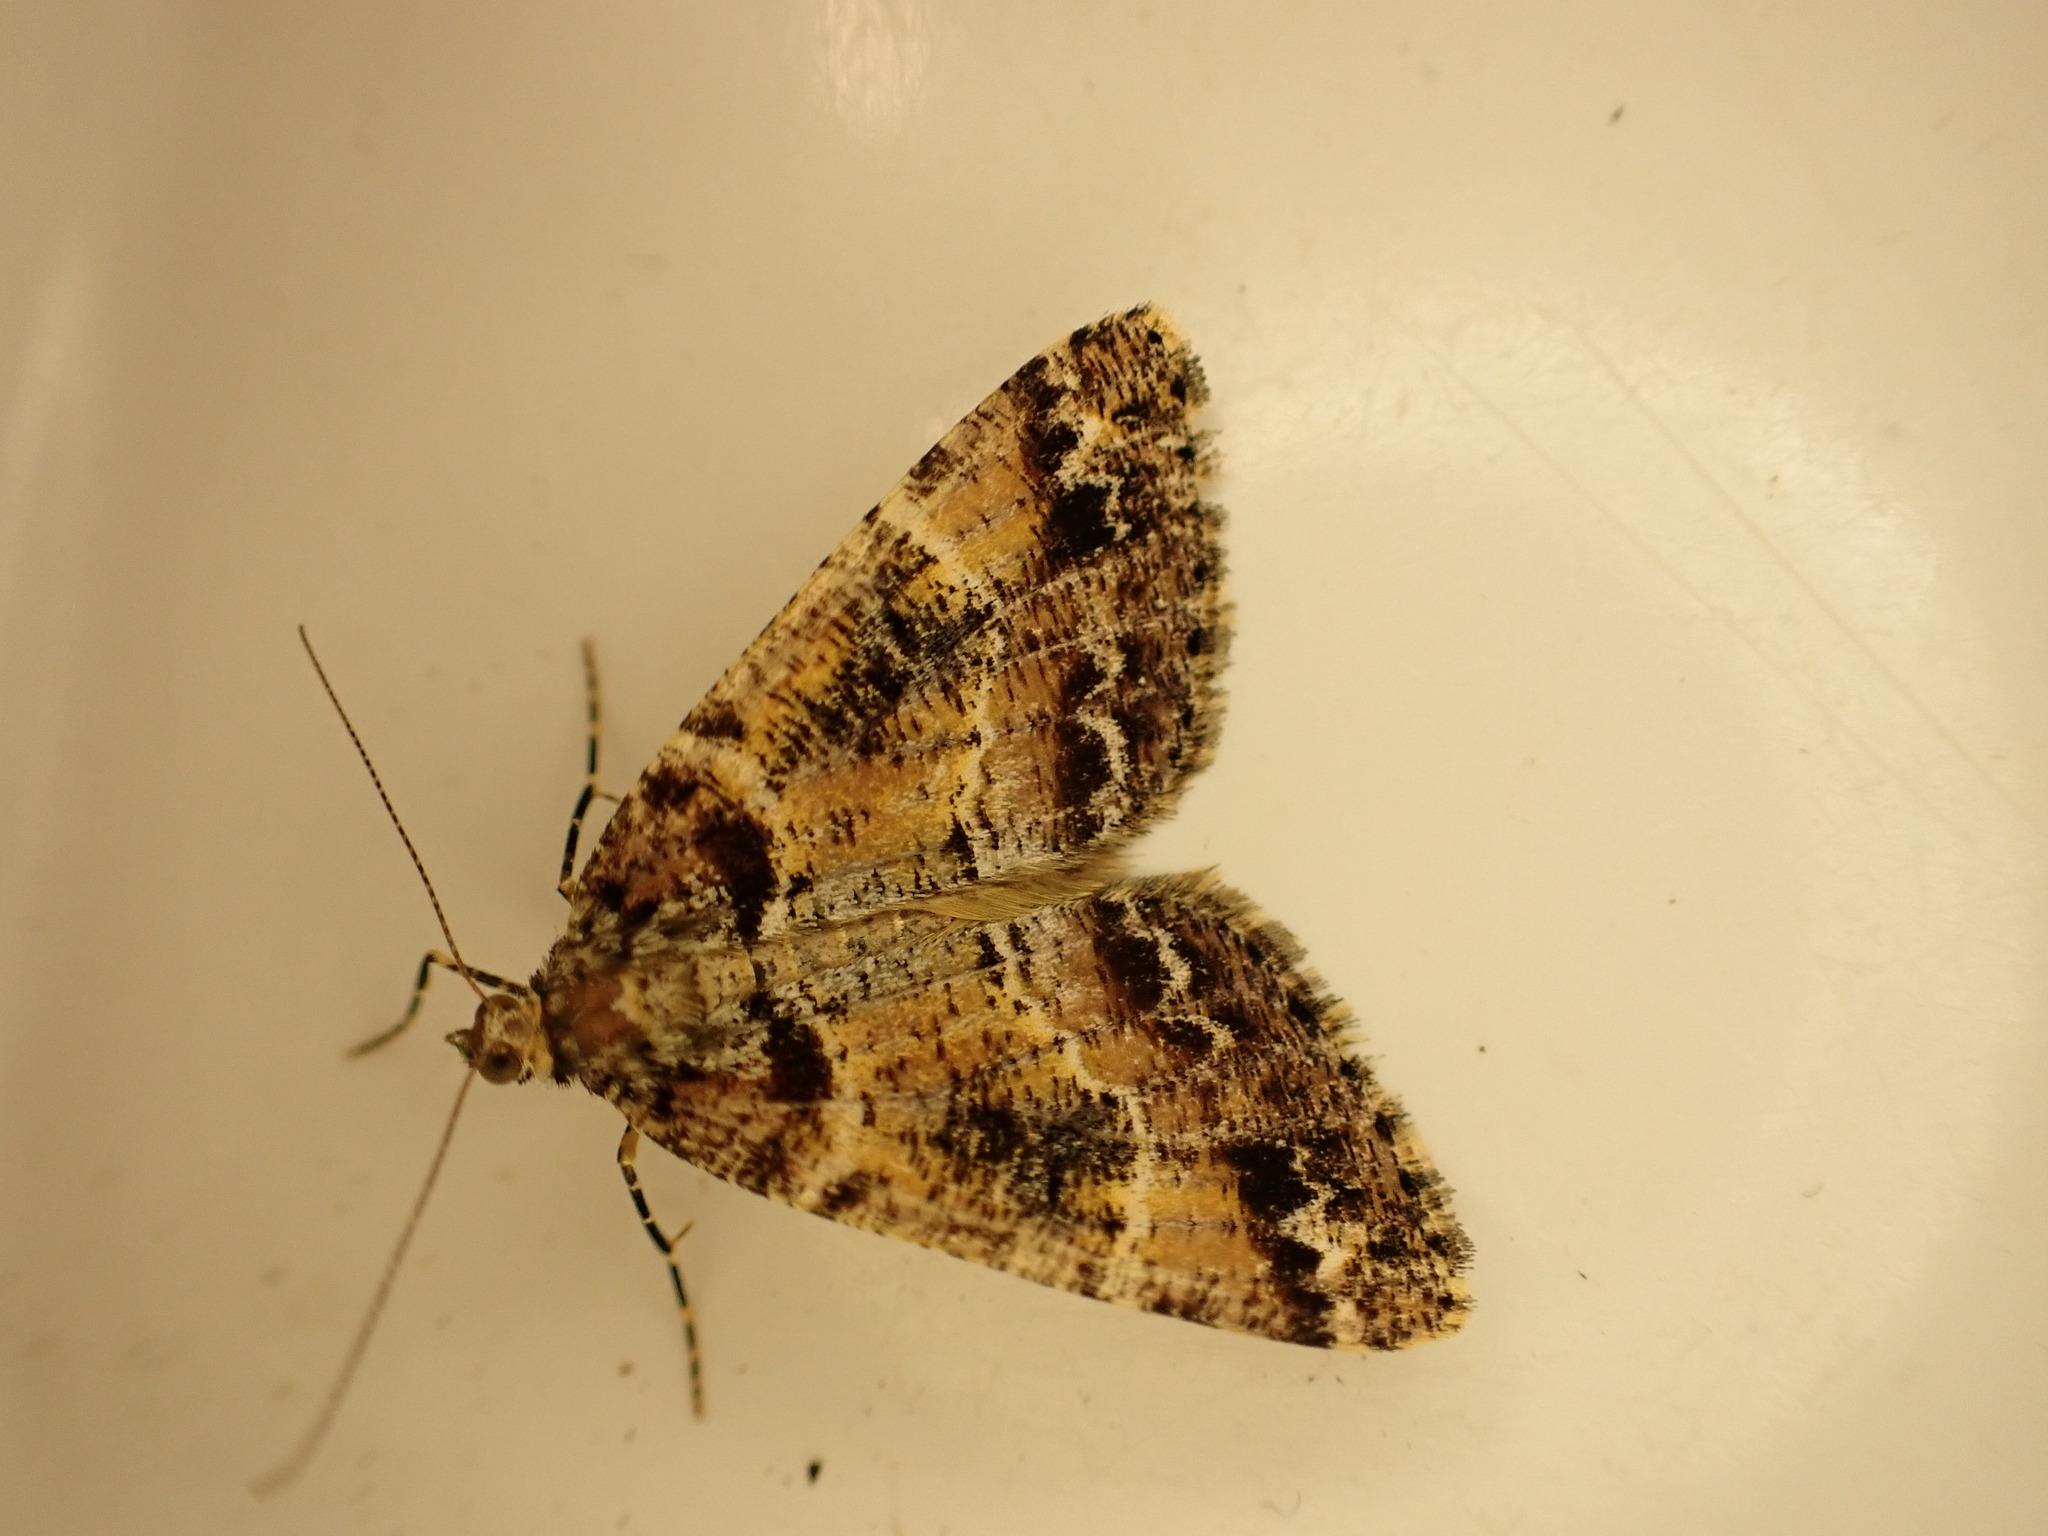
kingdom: Animalia
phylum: Arthropoda
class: Insecta
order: Lepidoptera
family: Geometridae
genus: Pseudocoremia
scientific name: Pseudocoremia productata
